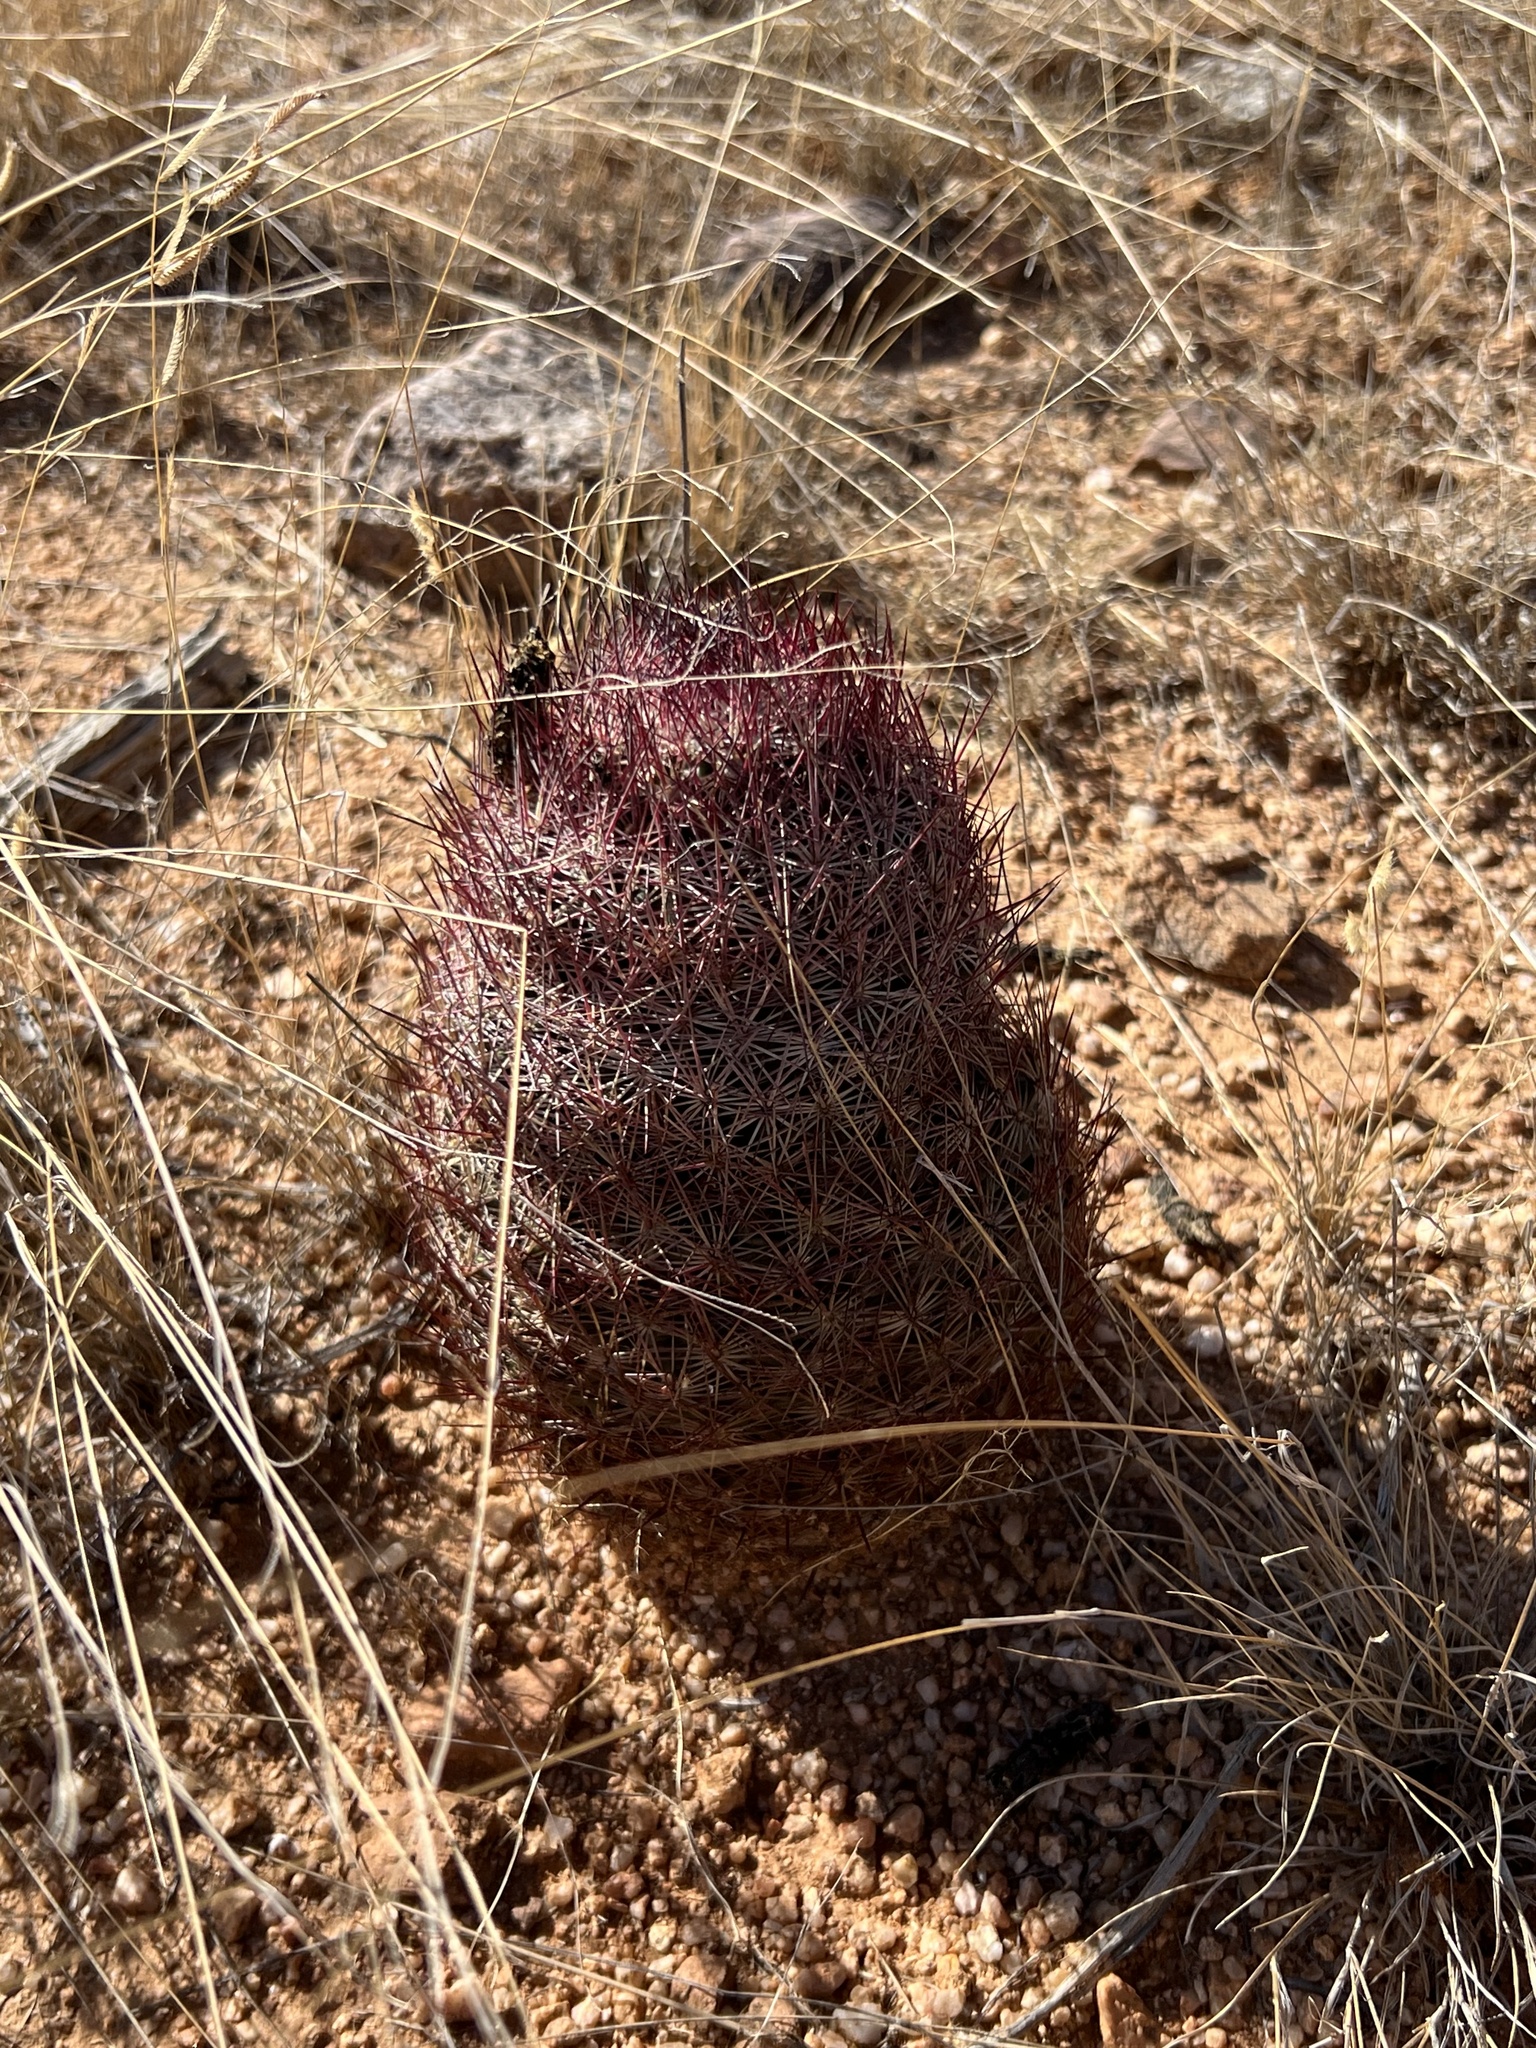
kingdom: Plantae
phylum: Tracheophyta
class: Magnoliopsida
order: Caryophyllales
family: Cactaceae
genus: Sclerocactus
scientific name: Sclerocactus johnsonii
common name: Eight-spine fishhook cactus
